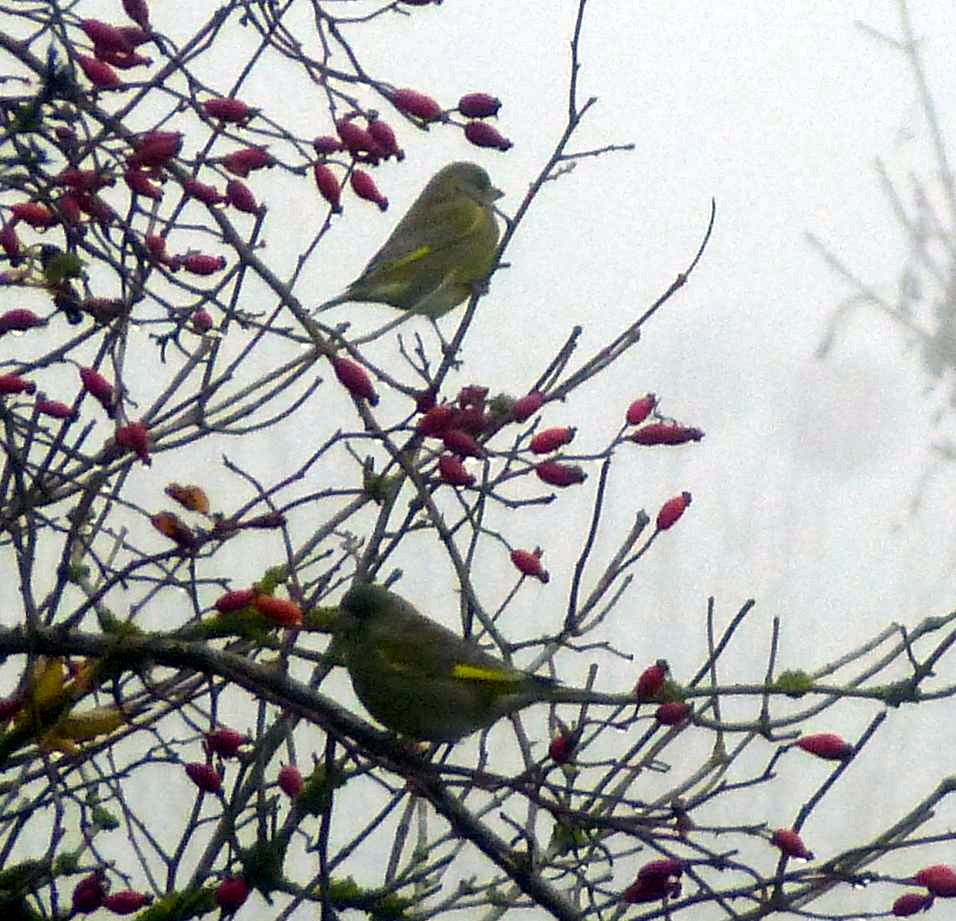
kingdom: Plantae
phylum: Tracheophyta
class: Liliopsida
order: Poales
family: Poaceae
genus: Chloris
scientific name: Chloris chloris
